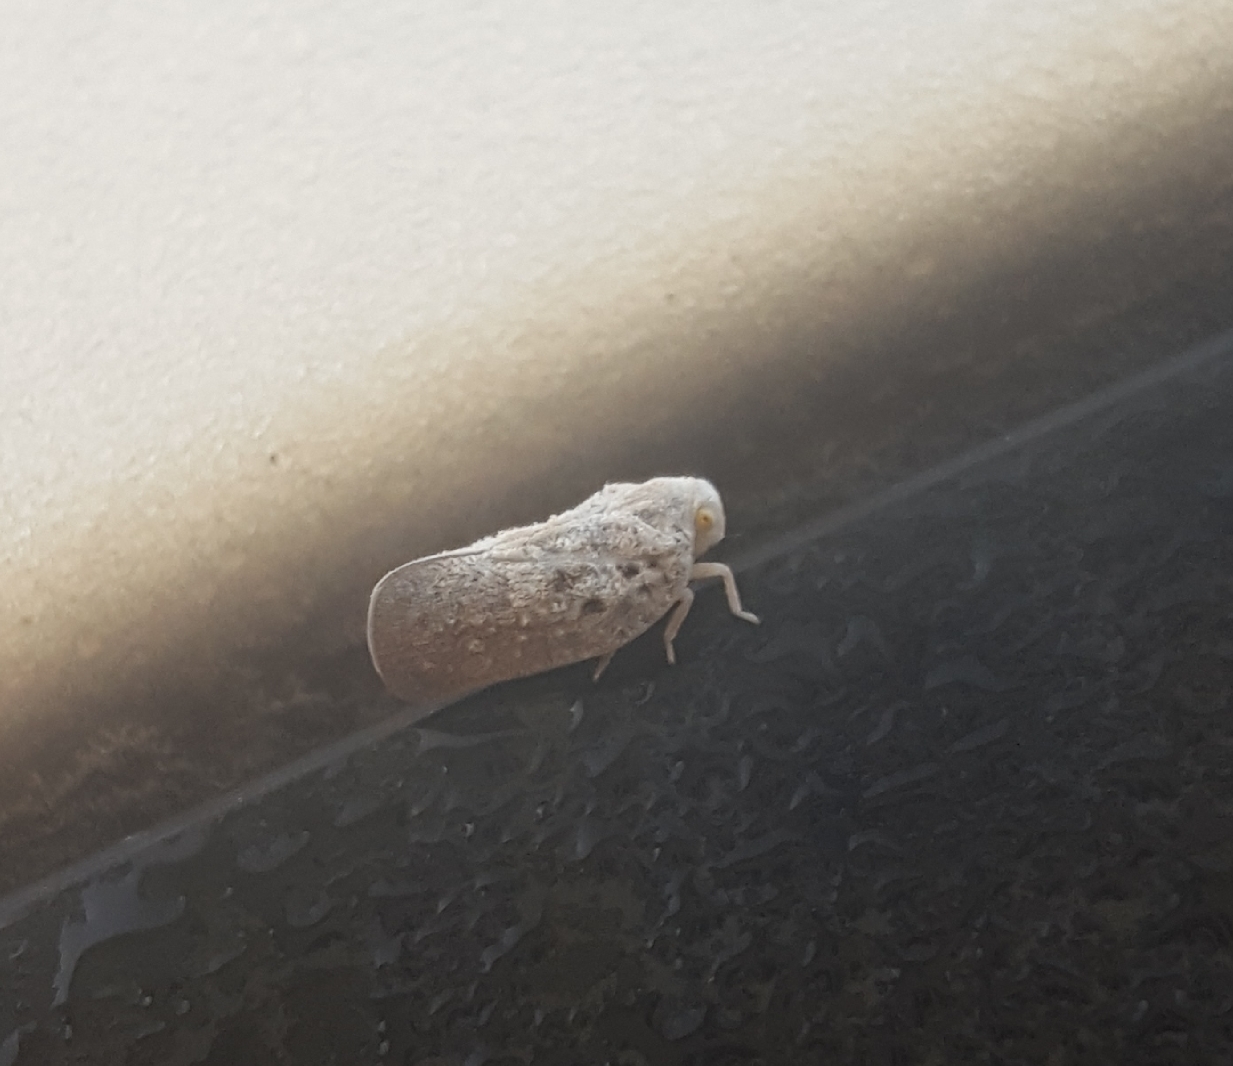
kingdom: Animalia
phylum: Arthropoda
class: Insecta
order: Hemiptera
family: Flatidae
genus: Metcalfa
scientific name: Metcalfa pruinosa
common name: Citrus flatid planthopper
